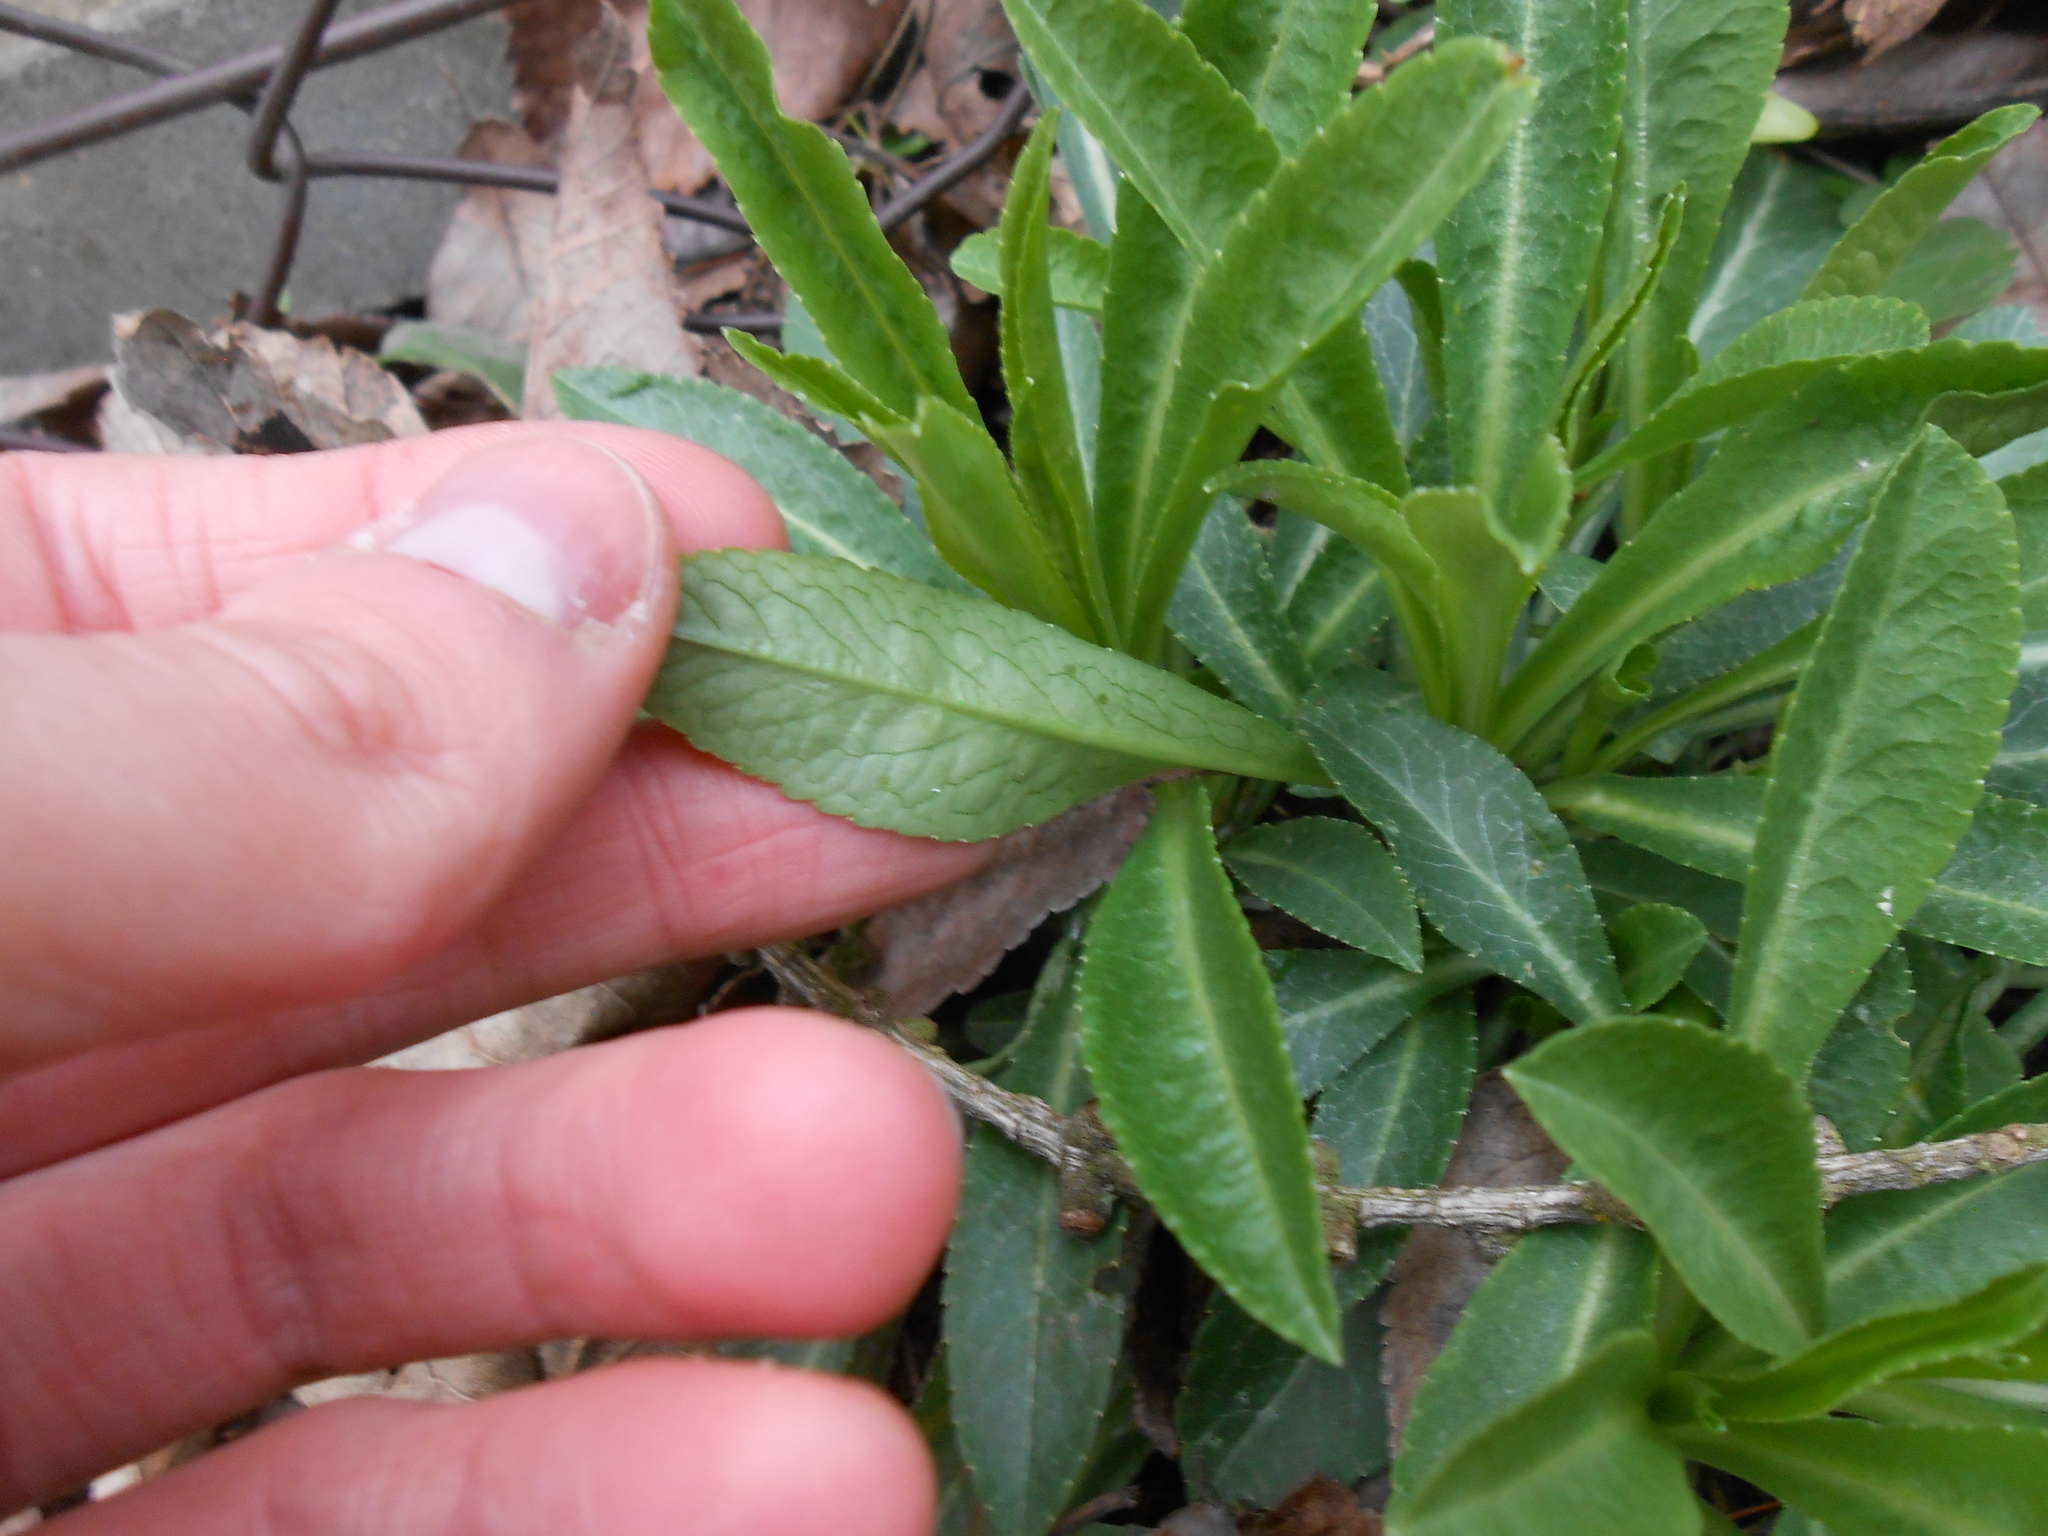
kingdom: Plantae
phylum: Tracheophyta
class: Magnoliopsida
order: Asterales
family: Campanulaceae
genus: Campanula
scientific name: Campanula persicifolia
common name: Peach-leaved bellflower
